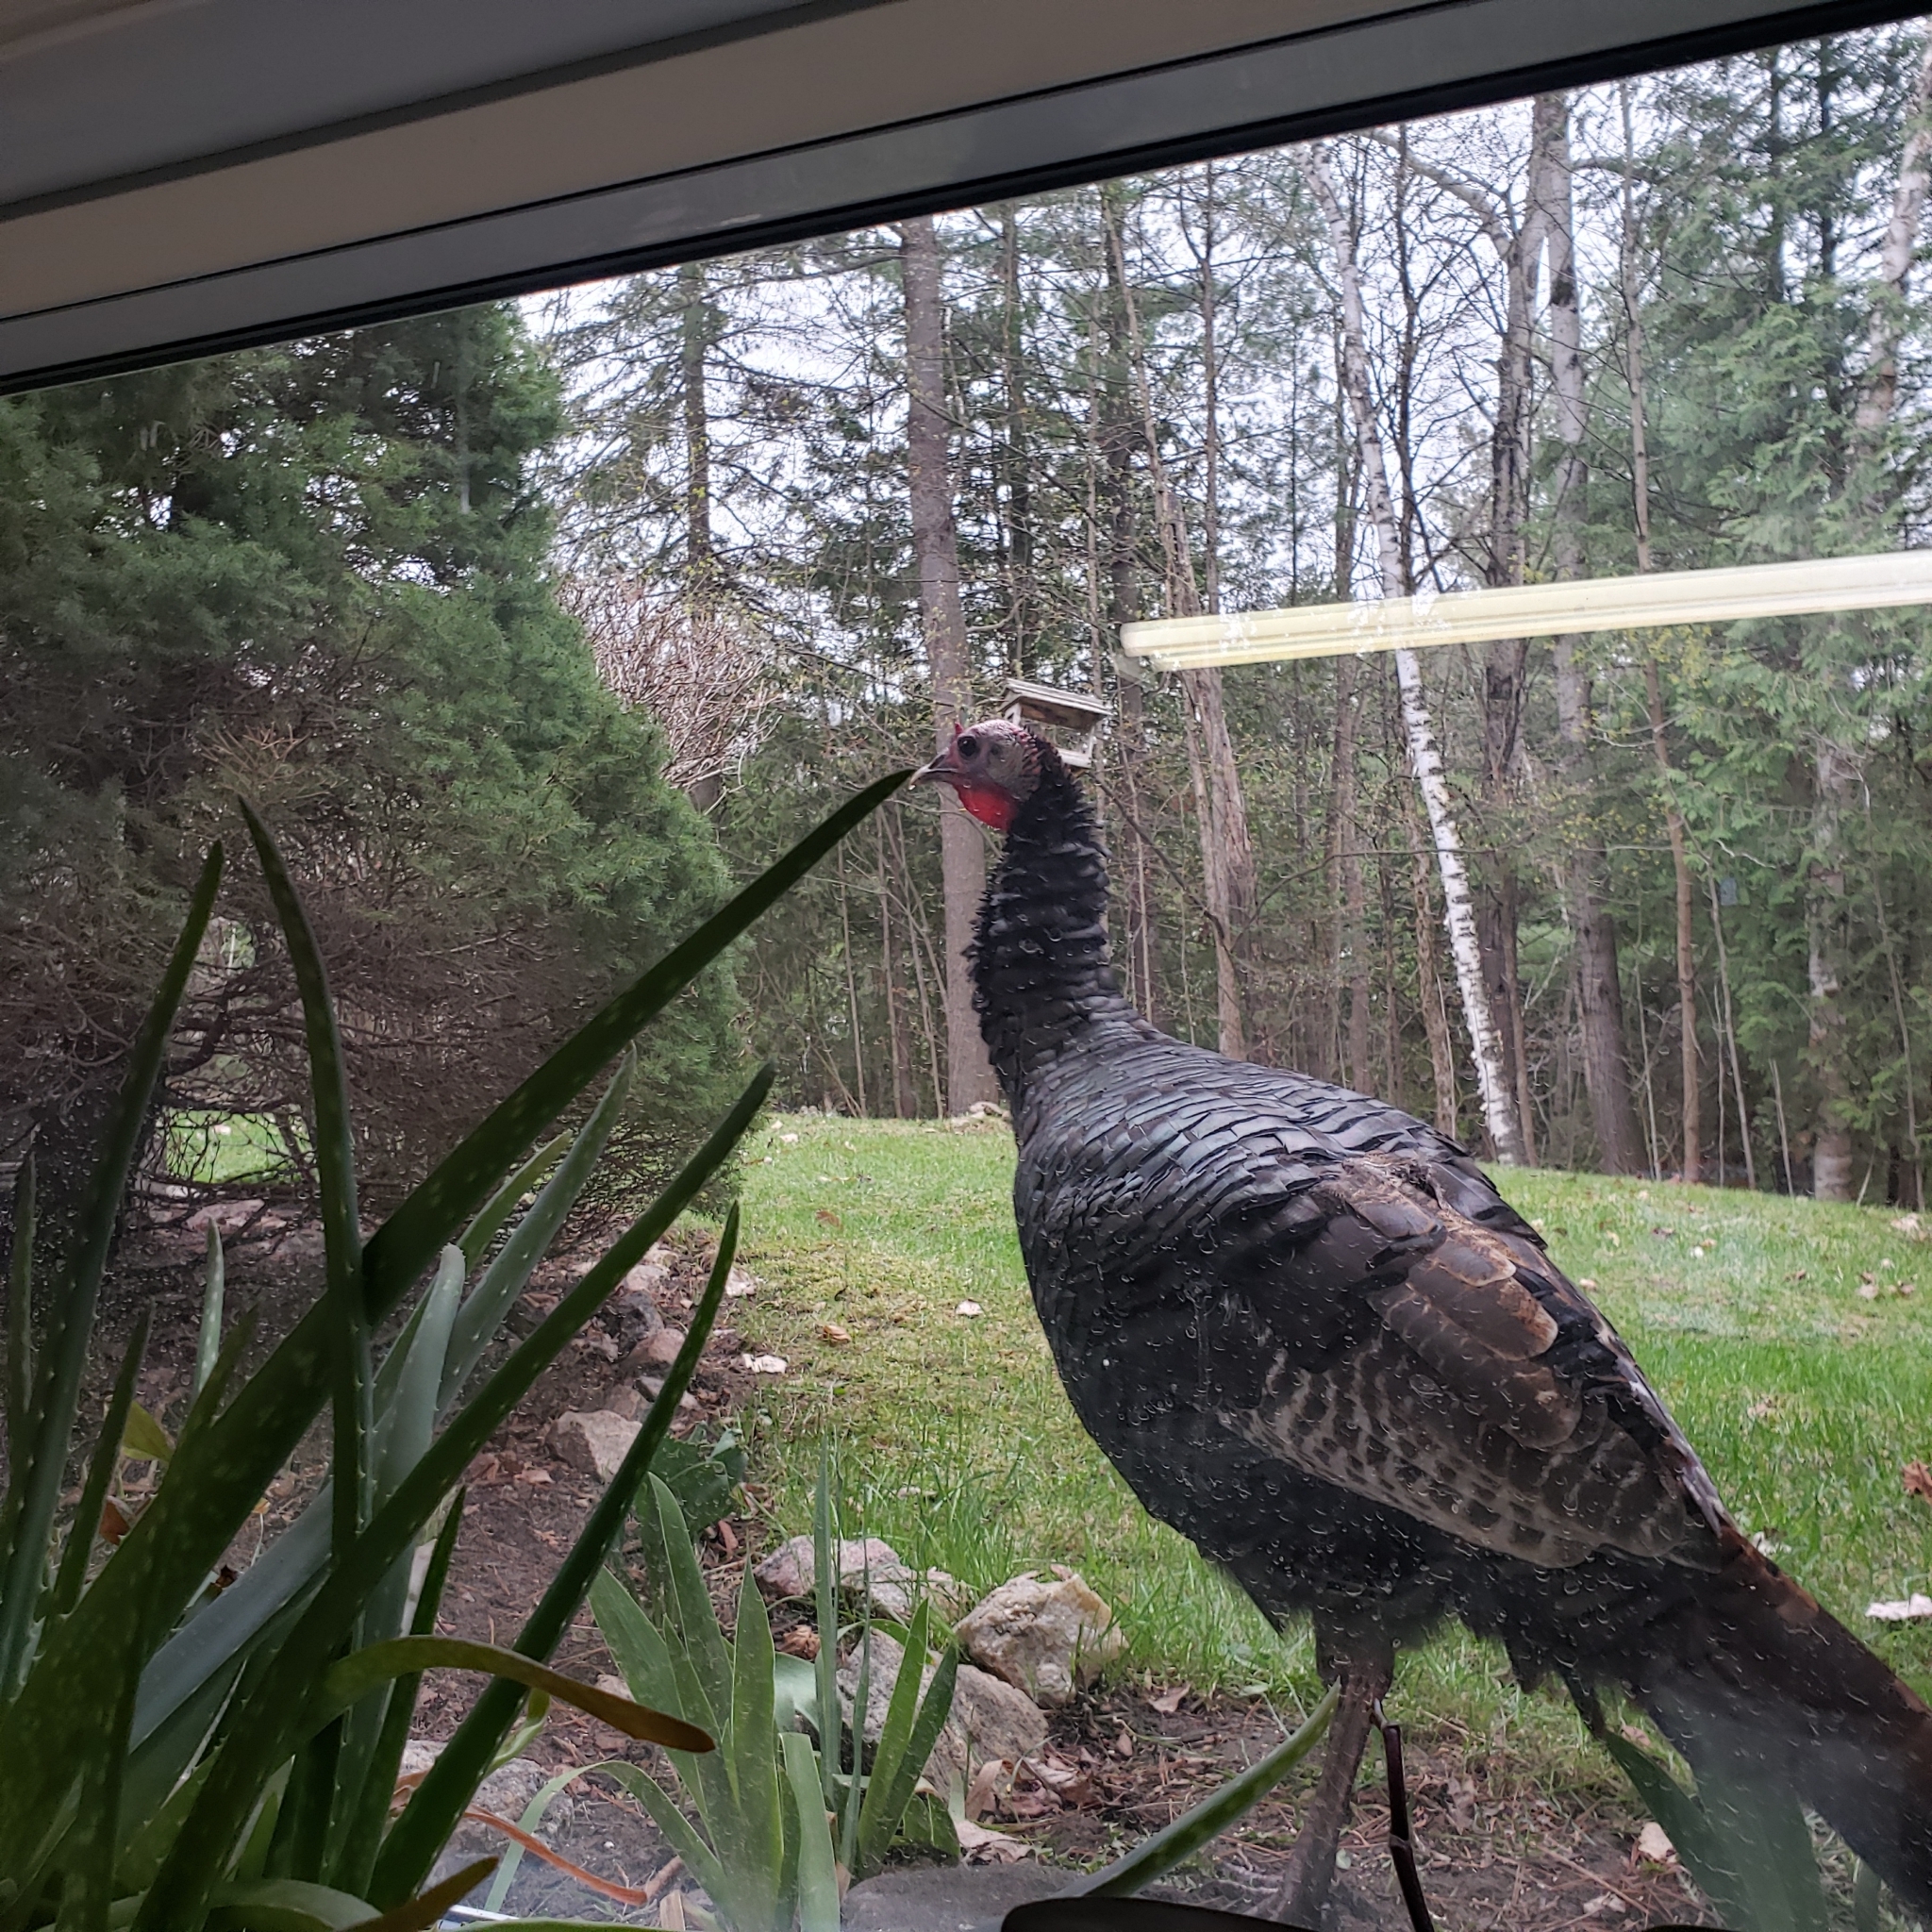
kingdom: Animalia
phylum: Chordata
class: Aves
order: Galliformes
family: Phasianidae
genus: Meleagris
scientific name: Meleagris gallopavo
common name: Wild turkey
